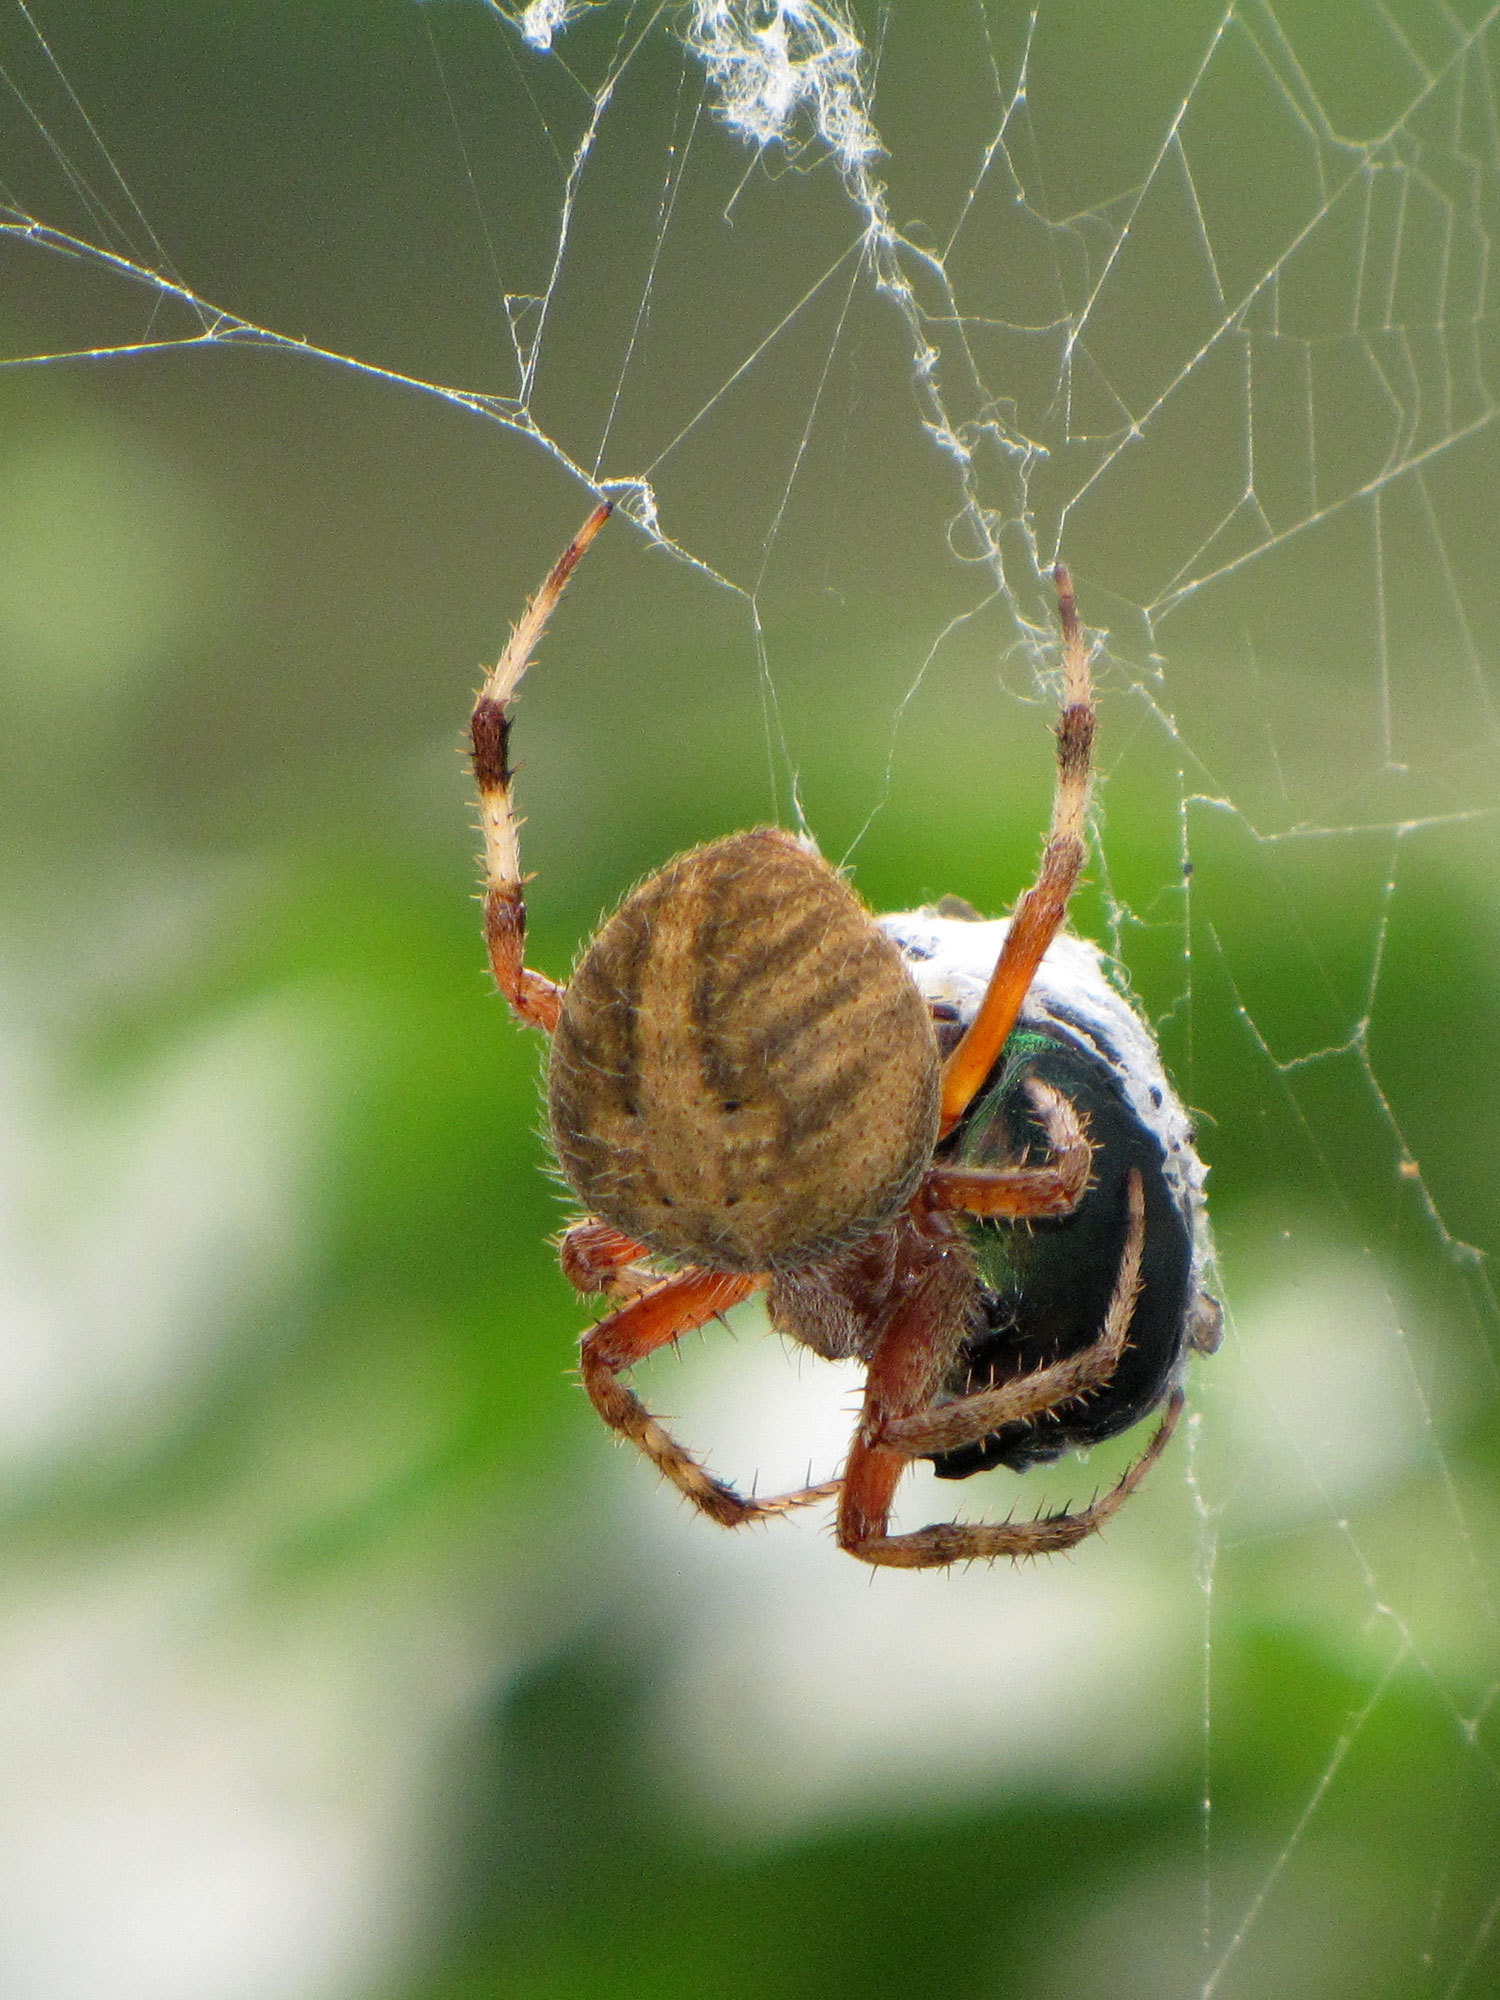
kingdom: Animalia
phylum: Arthropoda
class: Arachnida
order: Araneae
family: Araneidae
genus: Neoscona
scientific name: Neoscona crucifera
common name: Spotted orbweaver
